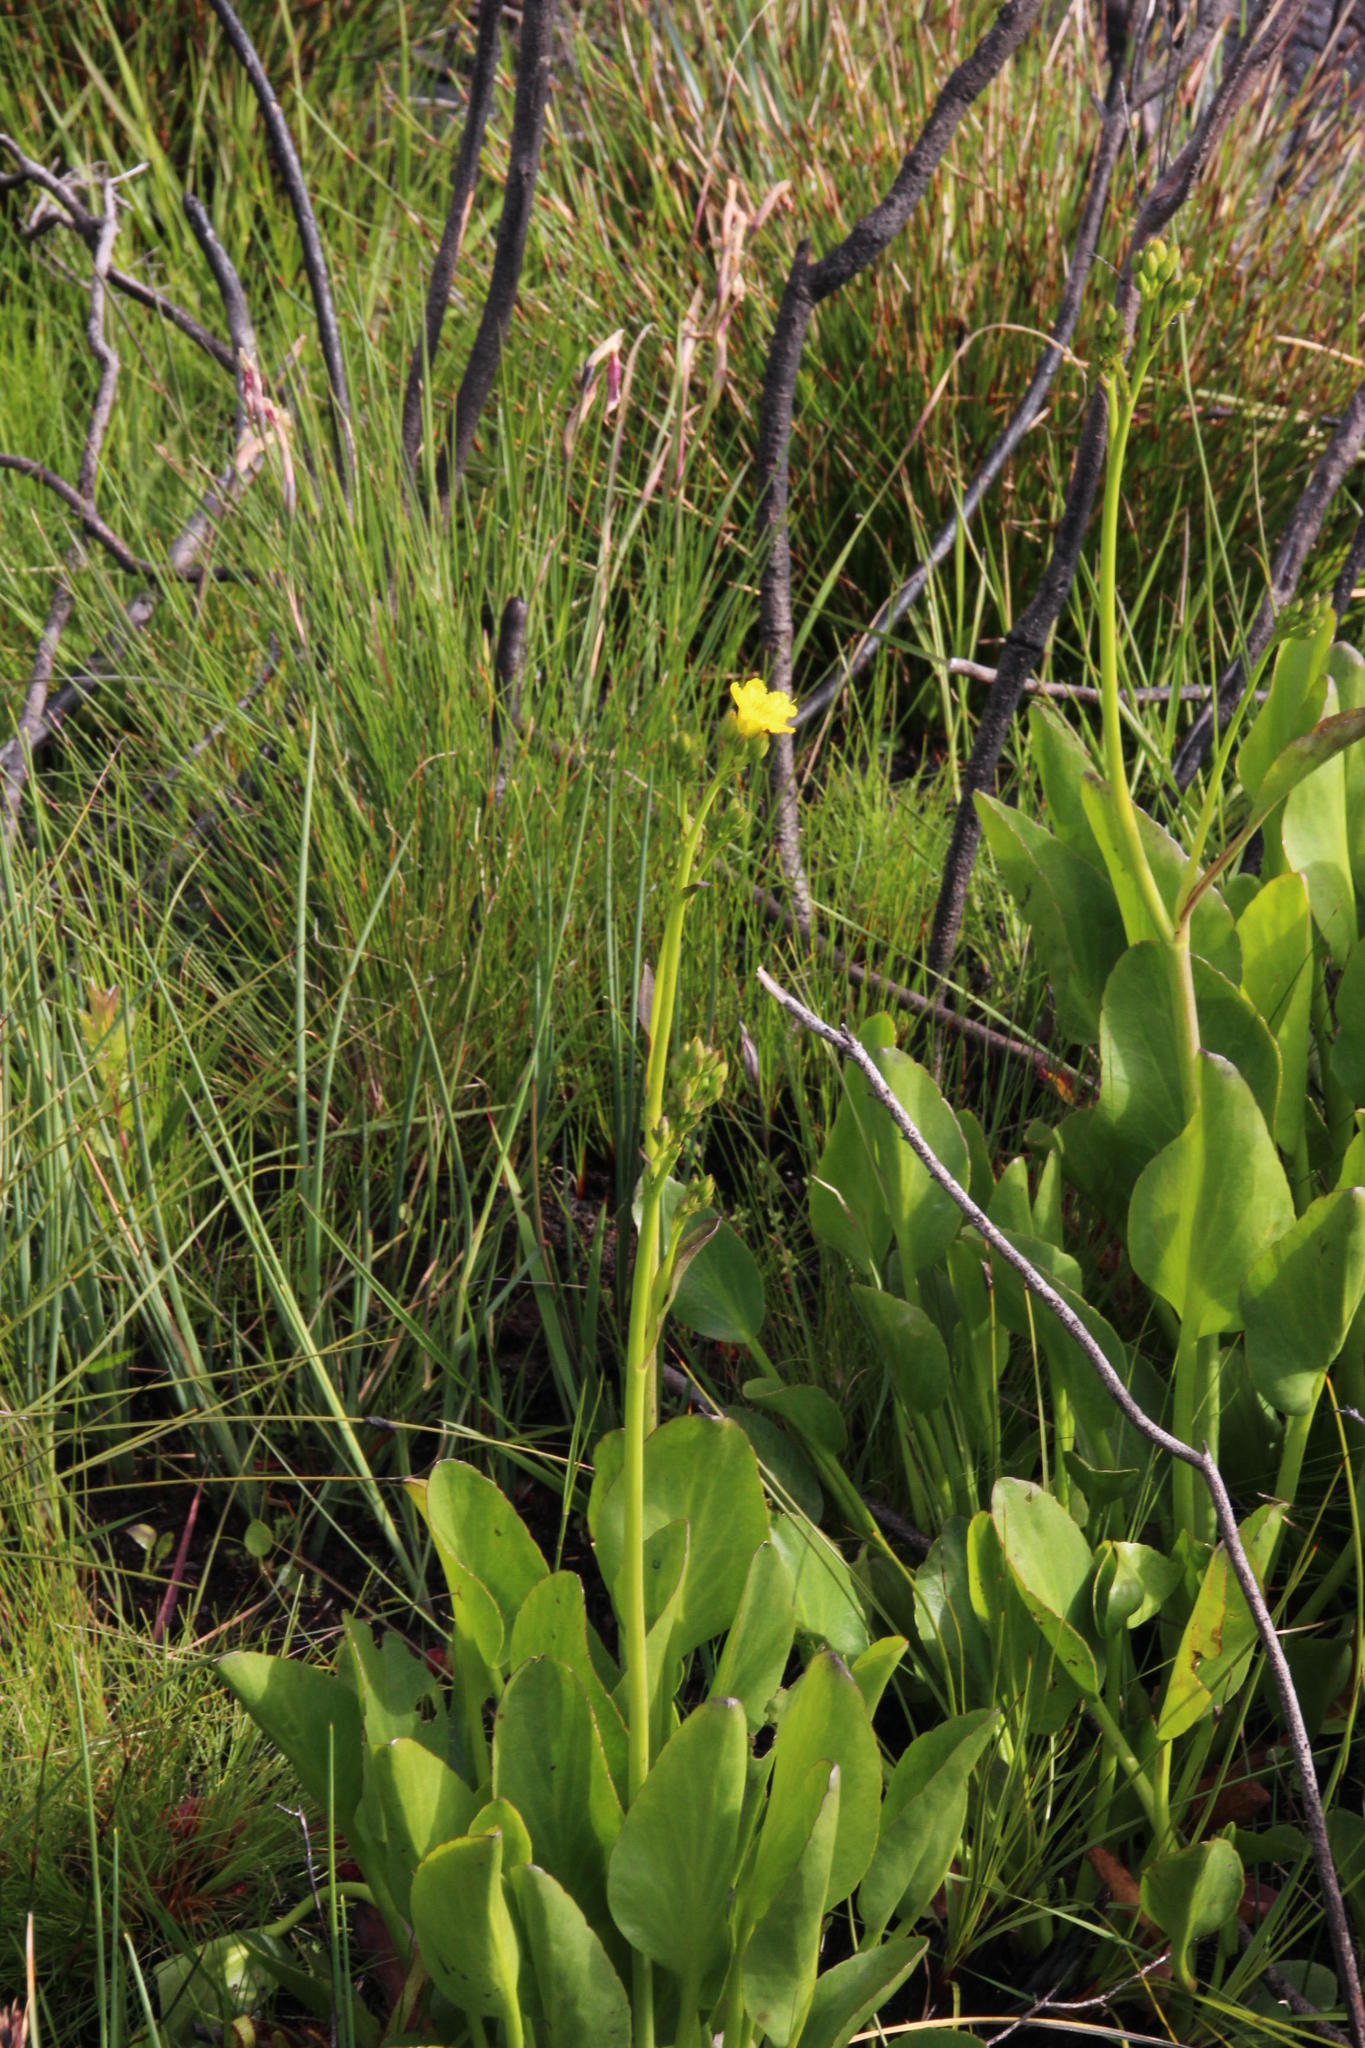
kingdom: Plantae
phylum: Tracheophyta
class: Magnoliopsida
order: Asterales
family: Menyanthaceae
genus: Villarsia
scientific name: Villarsia goldblattiana
